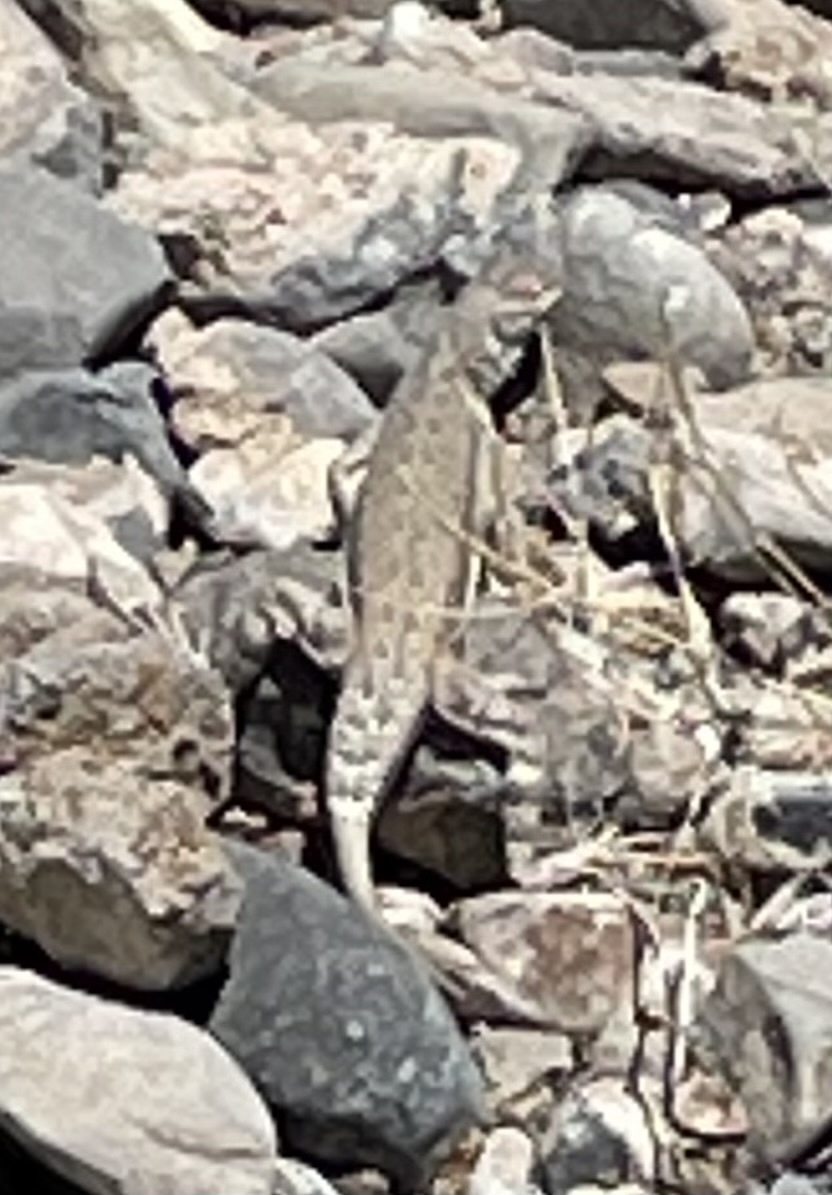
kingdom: Animalia
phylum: Chordata
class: Squamata
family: Phrynosomatidae
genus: Callisaurus
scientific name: Callisaurus draconoides
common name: Zebra-tailed lizard
